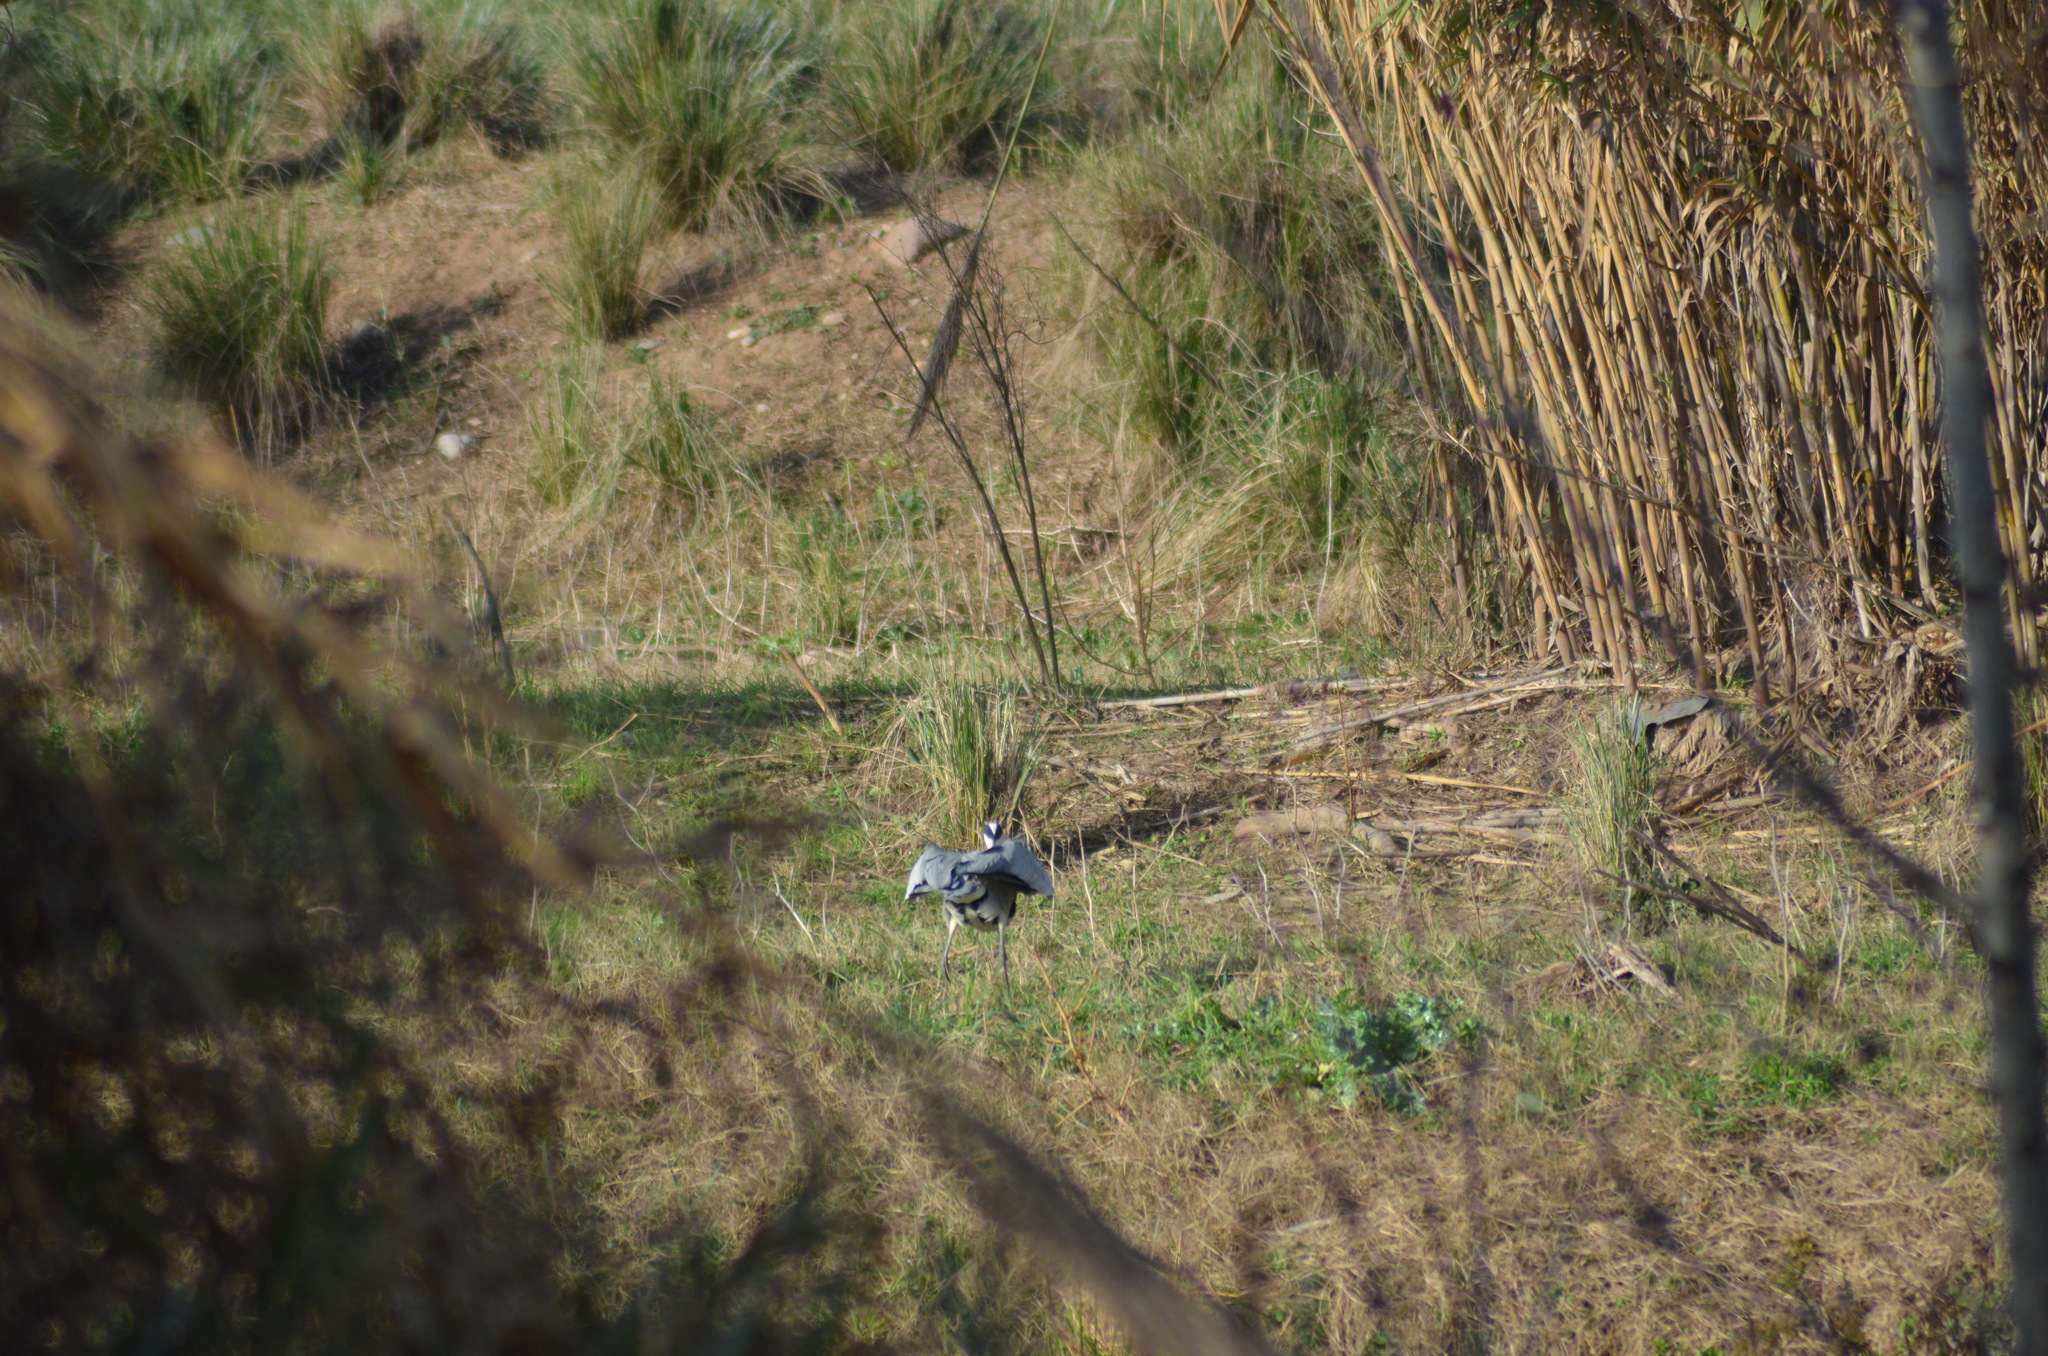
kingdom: Animalia
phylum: Chordata
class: Aves
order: Pelecaniformes
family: Ardeidae
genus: Ardea
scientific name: Ardea cinerea
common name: Grey heron
